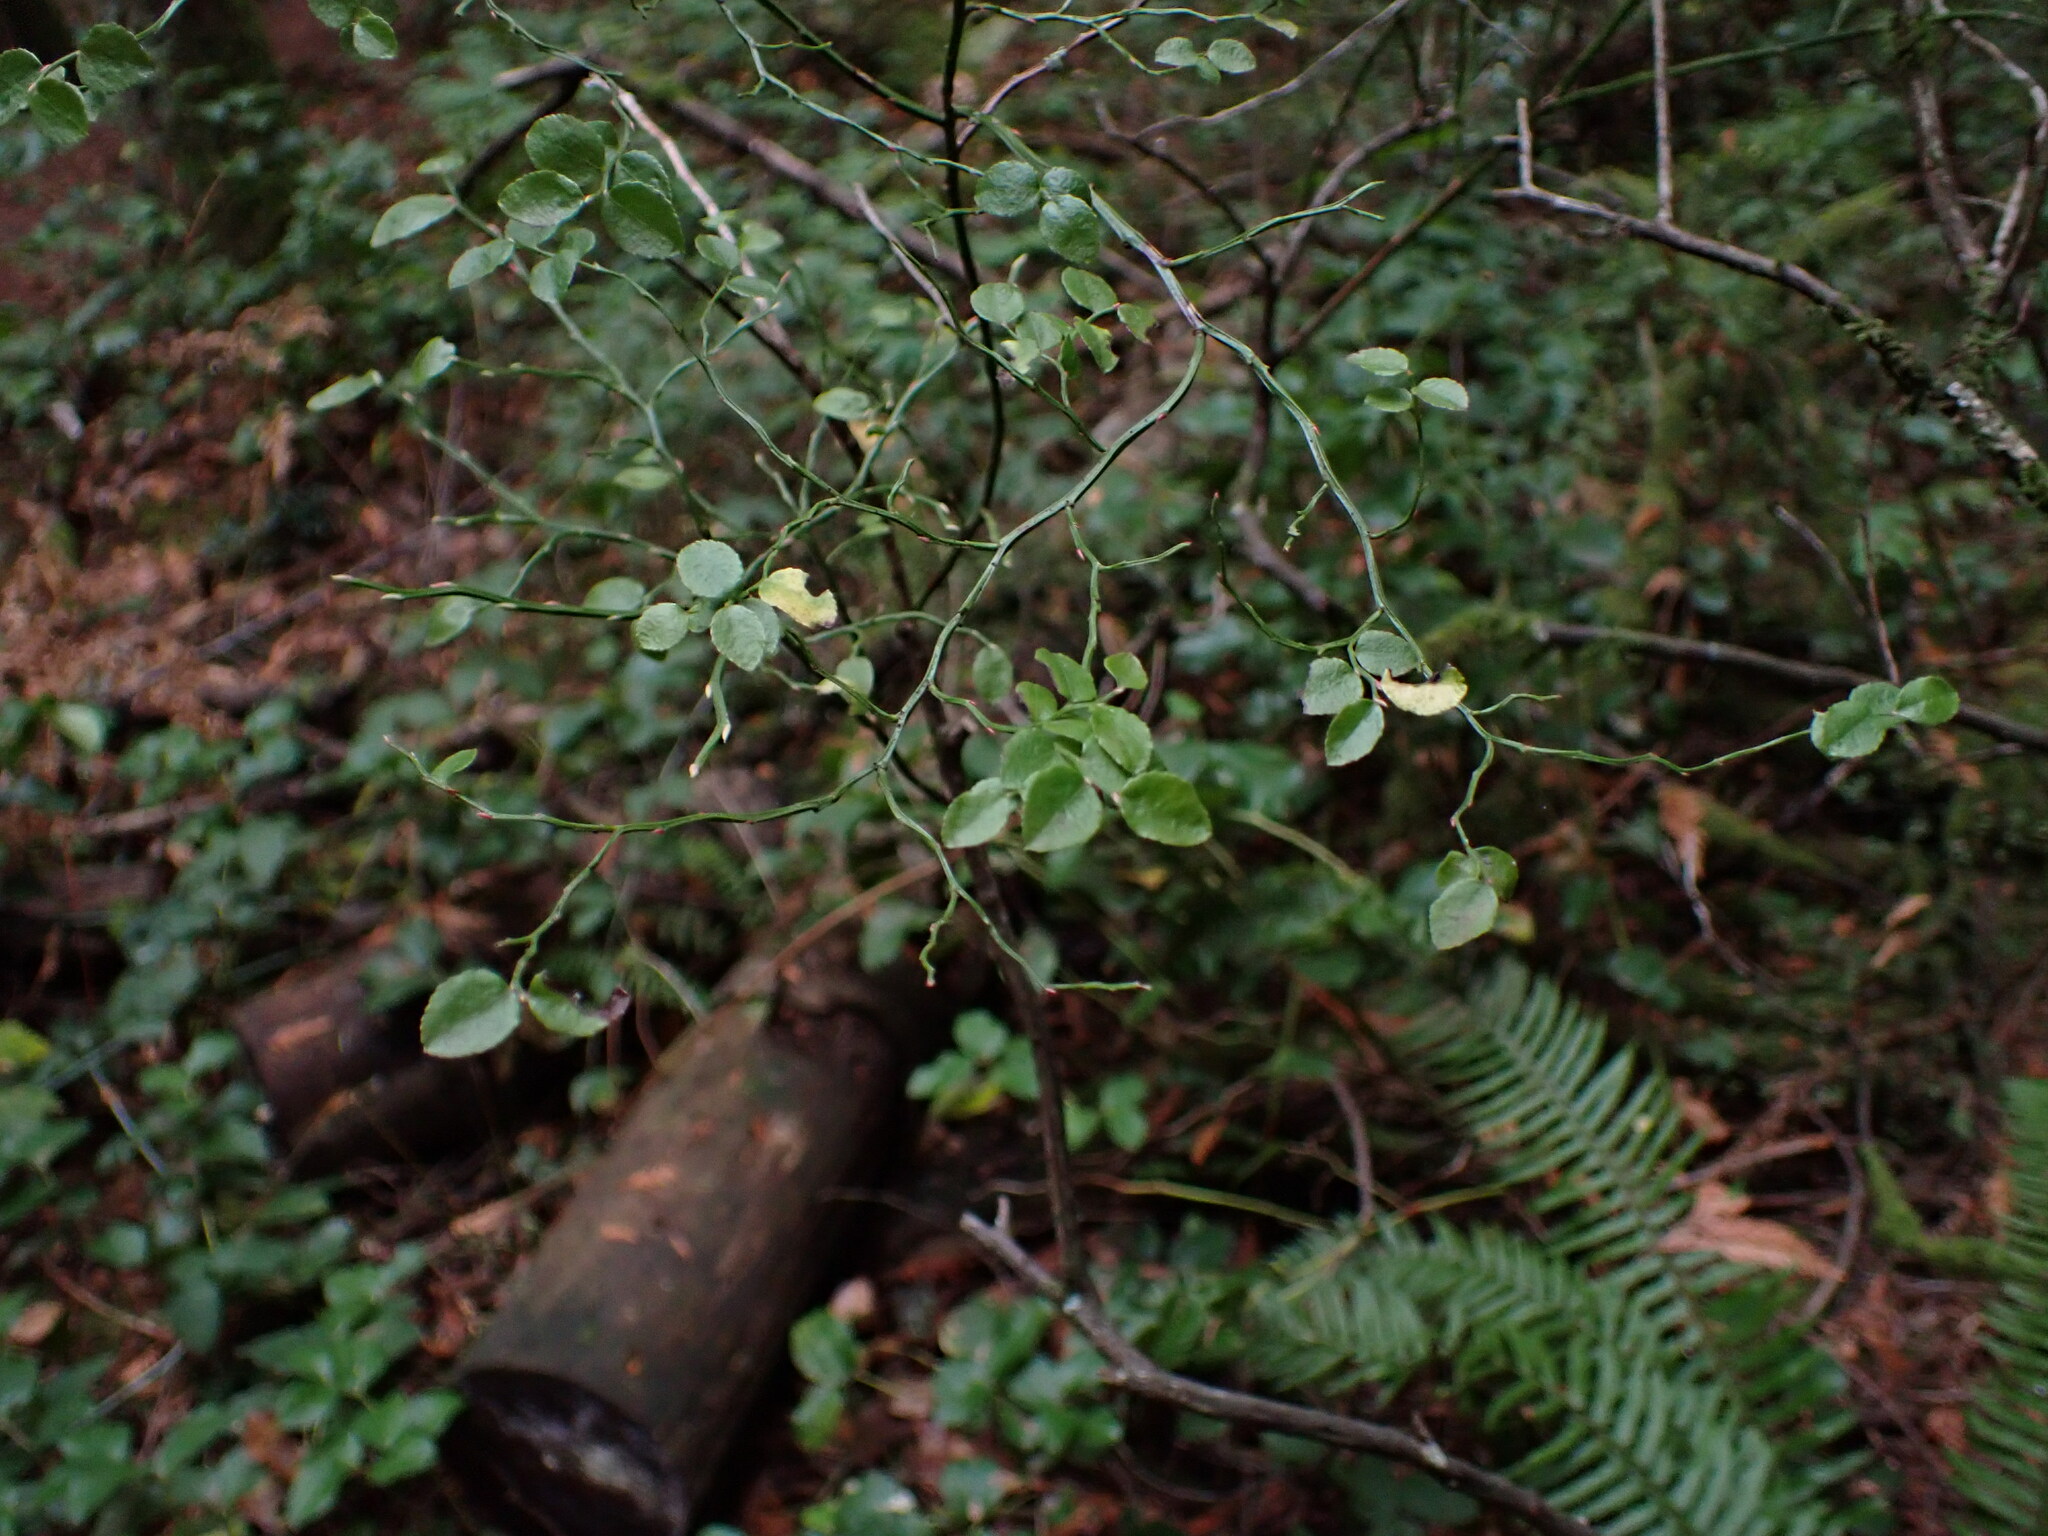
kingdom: Plantae
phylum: Tracheophyta
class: Magnoliopsida
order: Ericales
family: Ericaceae
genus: Vaccinium
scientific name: Vaccinium parvifolium
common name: Red-huckleberry
